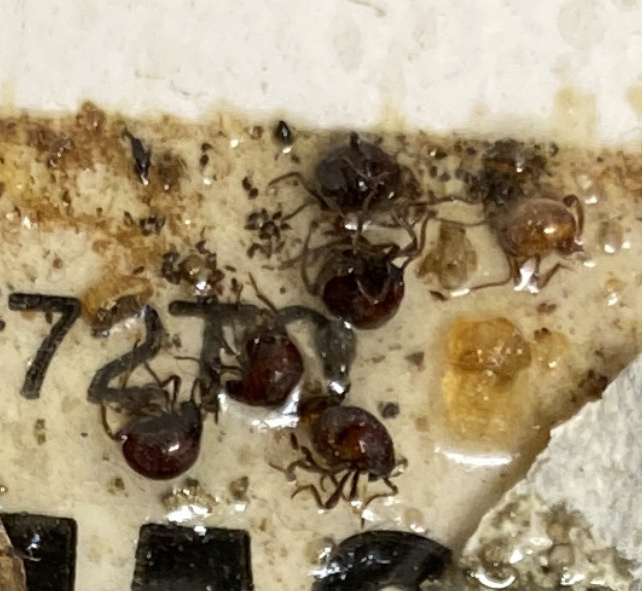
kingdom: Animalia
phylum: Arthropoda
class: Insecta
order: Coleoptera
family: Ptinidae
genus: Gibbium
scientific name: Gibbium aequinoctiale
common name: Smooth spider beetle
